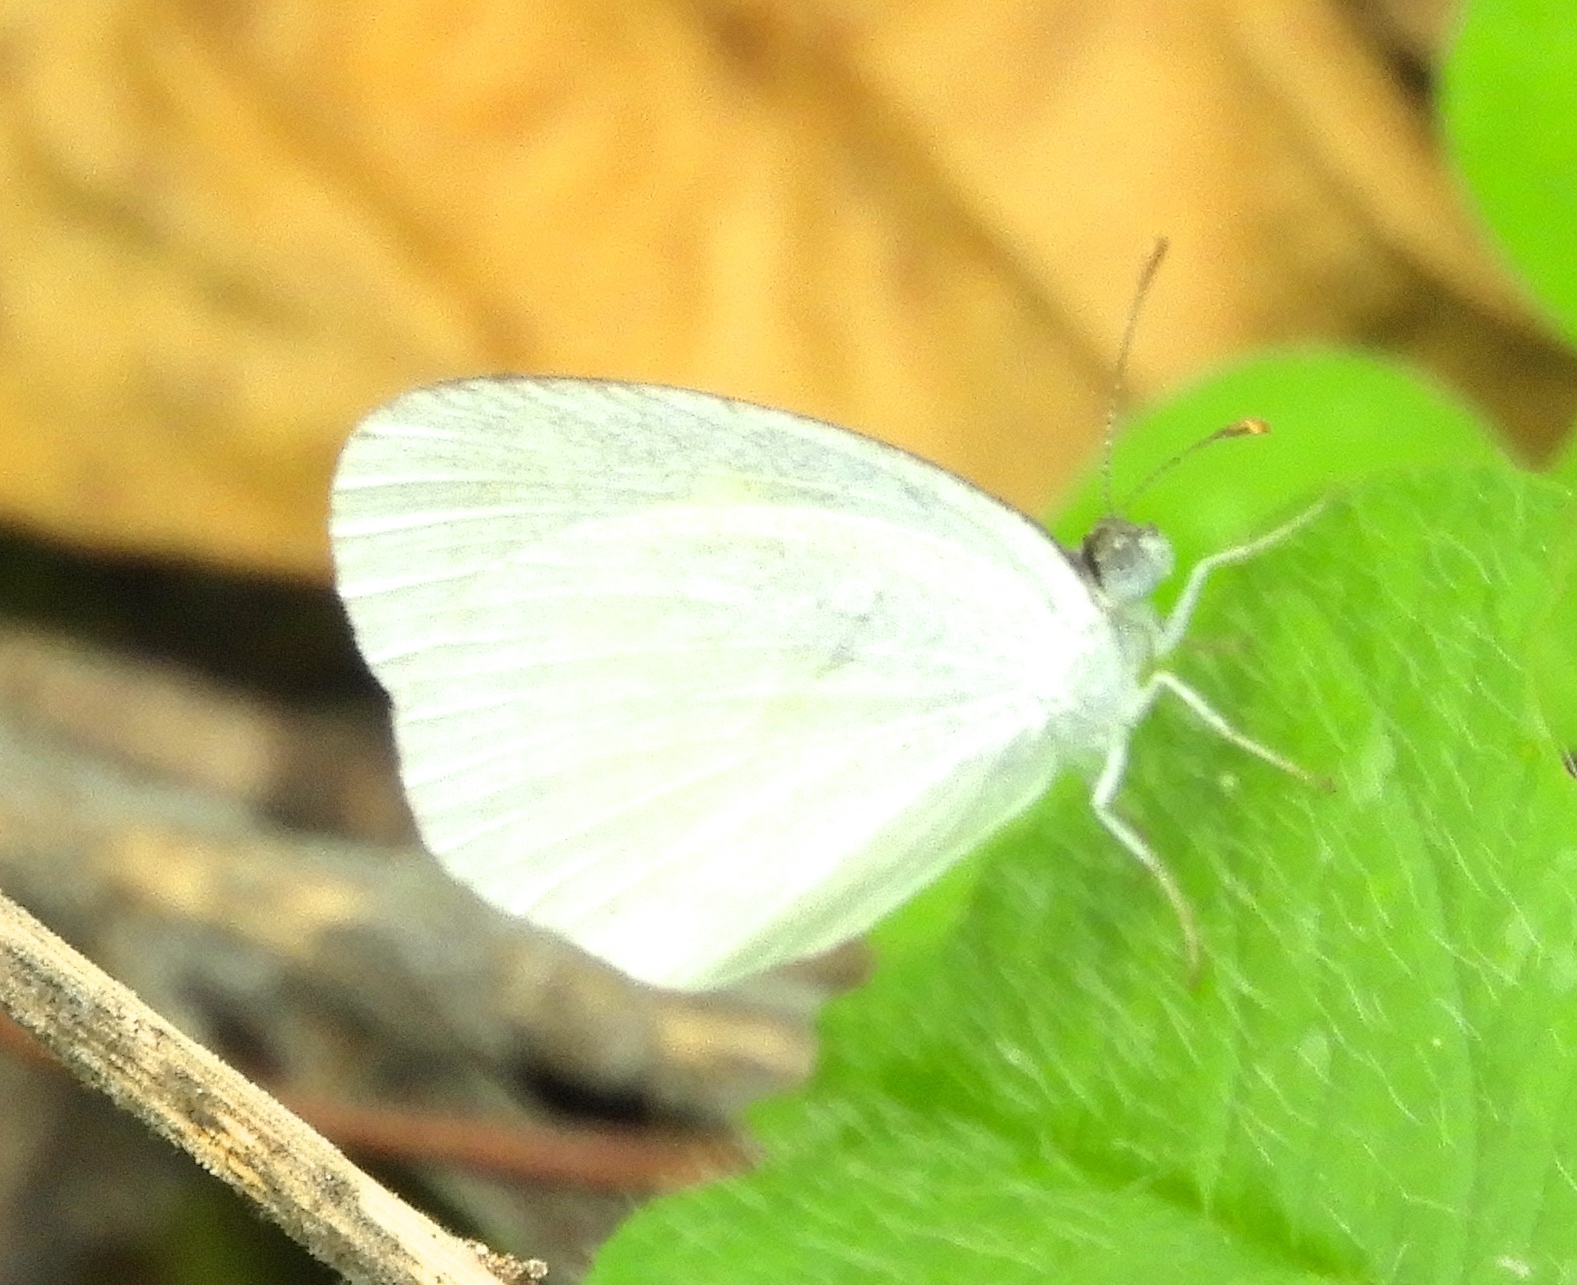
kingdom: Animalia
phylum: Arthropoda
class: Insecta
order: Lepidoptera
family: Pieridae
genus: Eurema
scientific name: Eurema daira
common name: Barred sulphur
